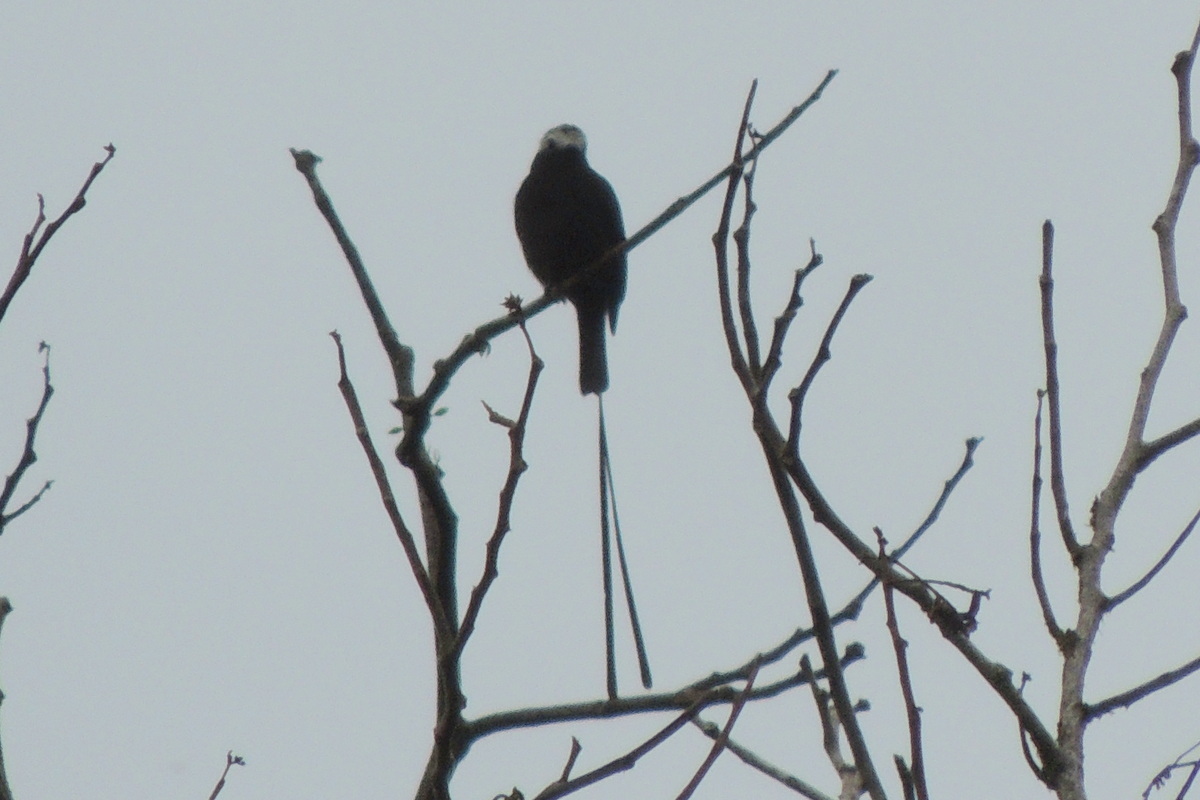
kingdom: Animalia
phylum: Chordata
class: Aves
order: Passeriformes
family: Tyrannidae
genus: Colonia
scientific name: Colonia colonus
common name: Long-tailed tyrant
